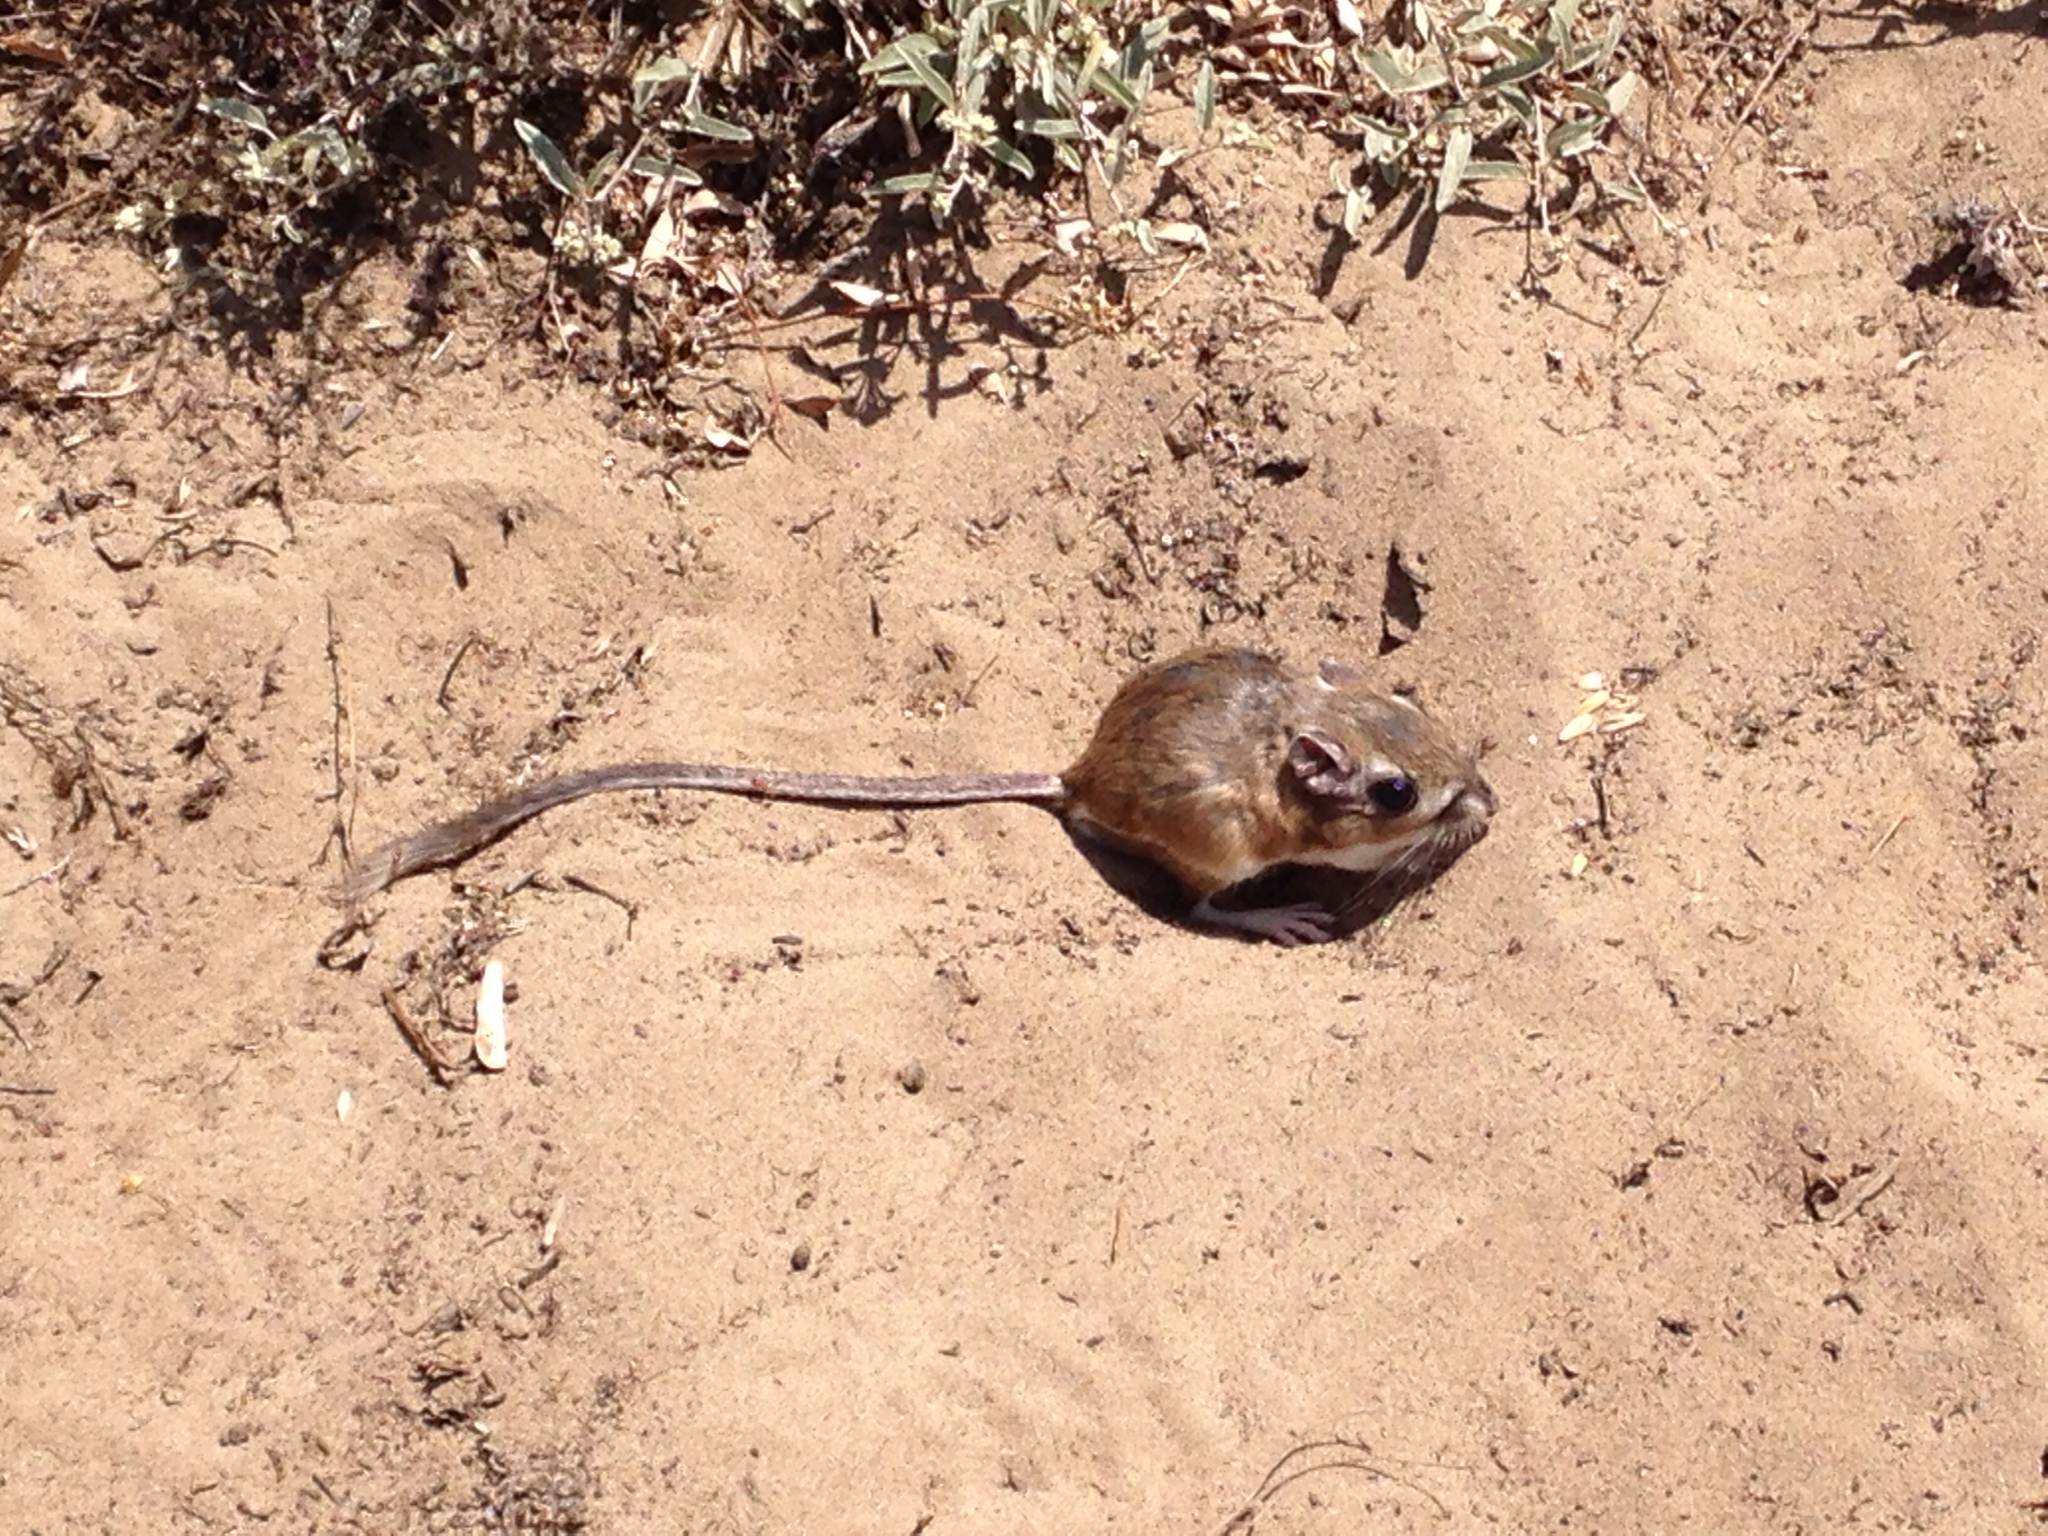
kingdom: Animalia
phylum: Chordata
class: Mammalia
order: Rodentia
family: Heteromyidae
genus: Dipodomys
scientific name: Dipodomys heermanni
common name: Heermann's kangaroo rat
